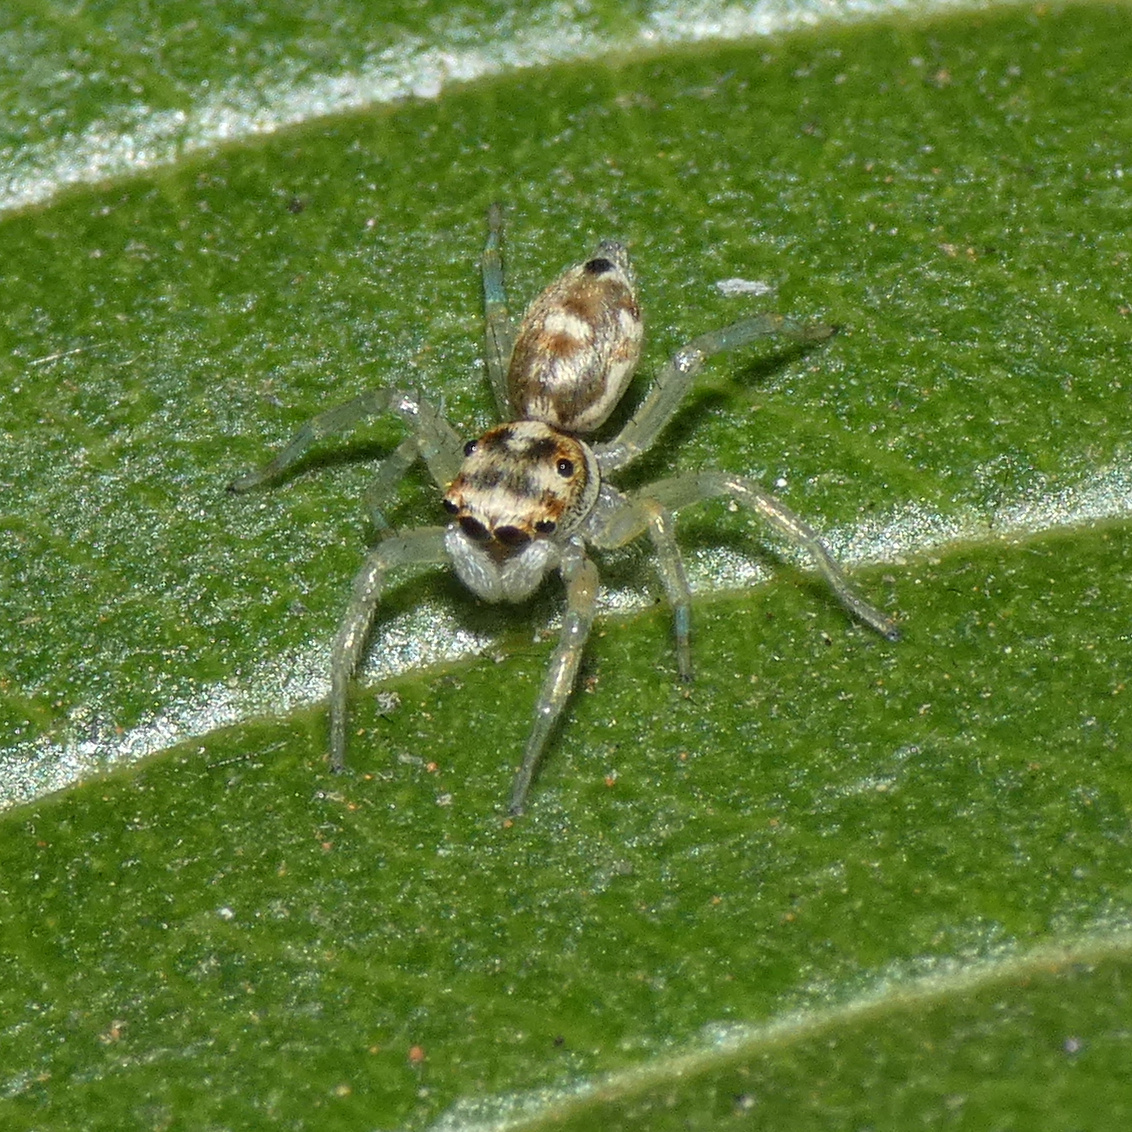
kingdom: Animalia
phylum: Arthropoda
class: Arachnida
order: Araneae
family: Salticidae
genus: Phintella
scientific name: Phintella aequipes
